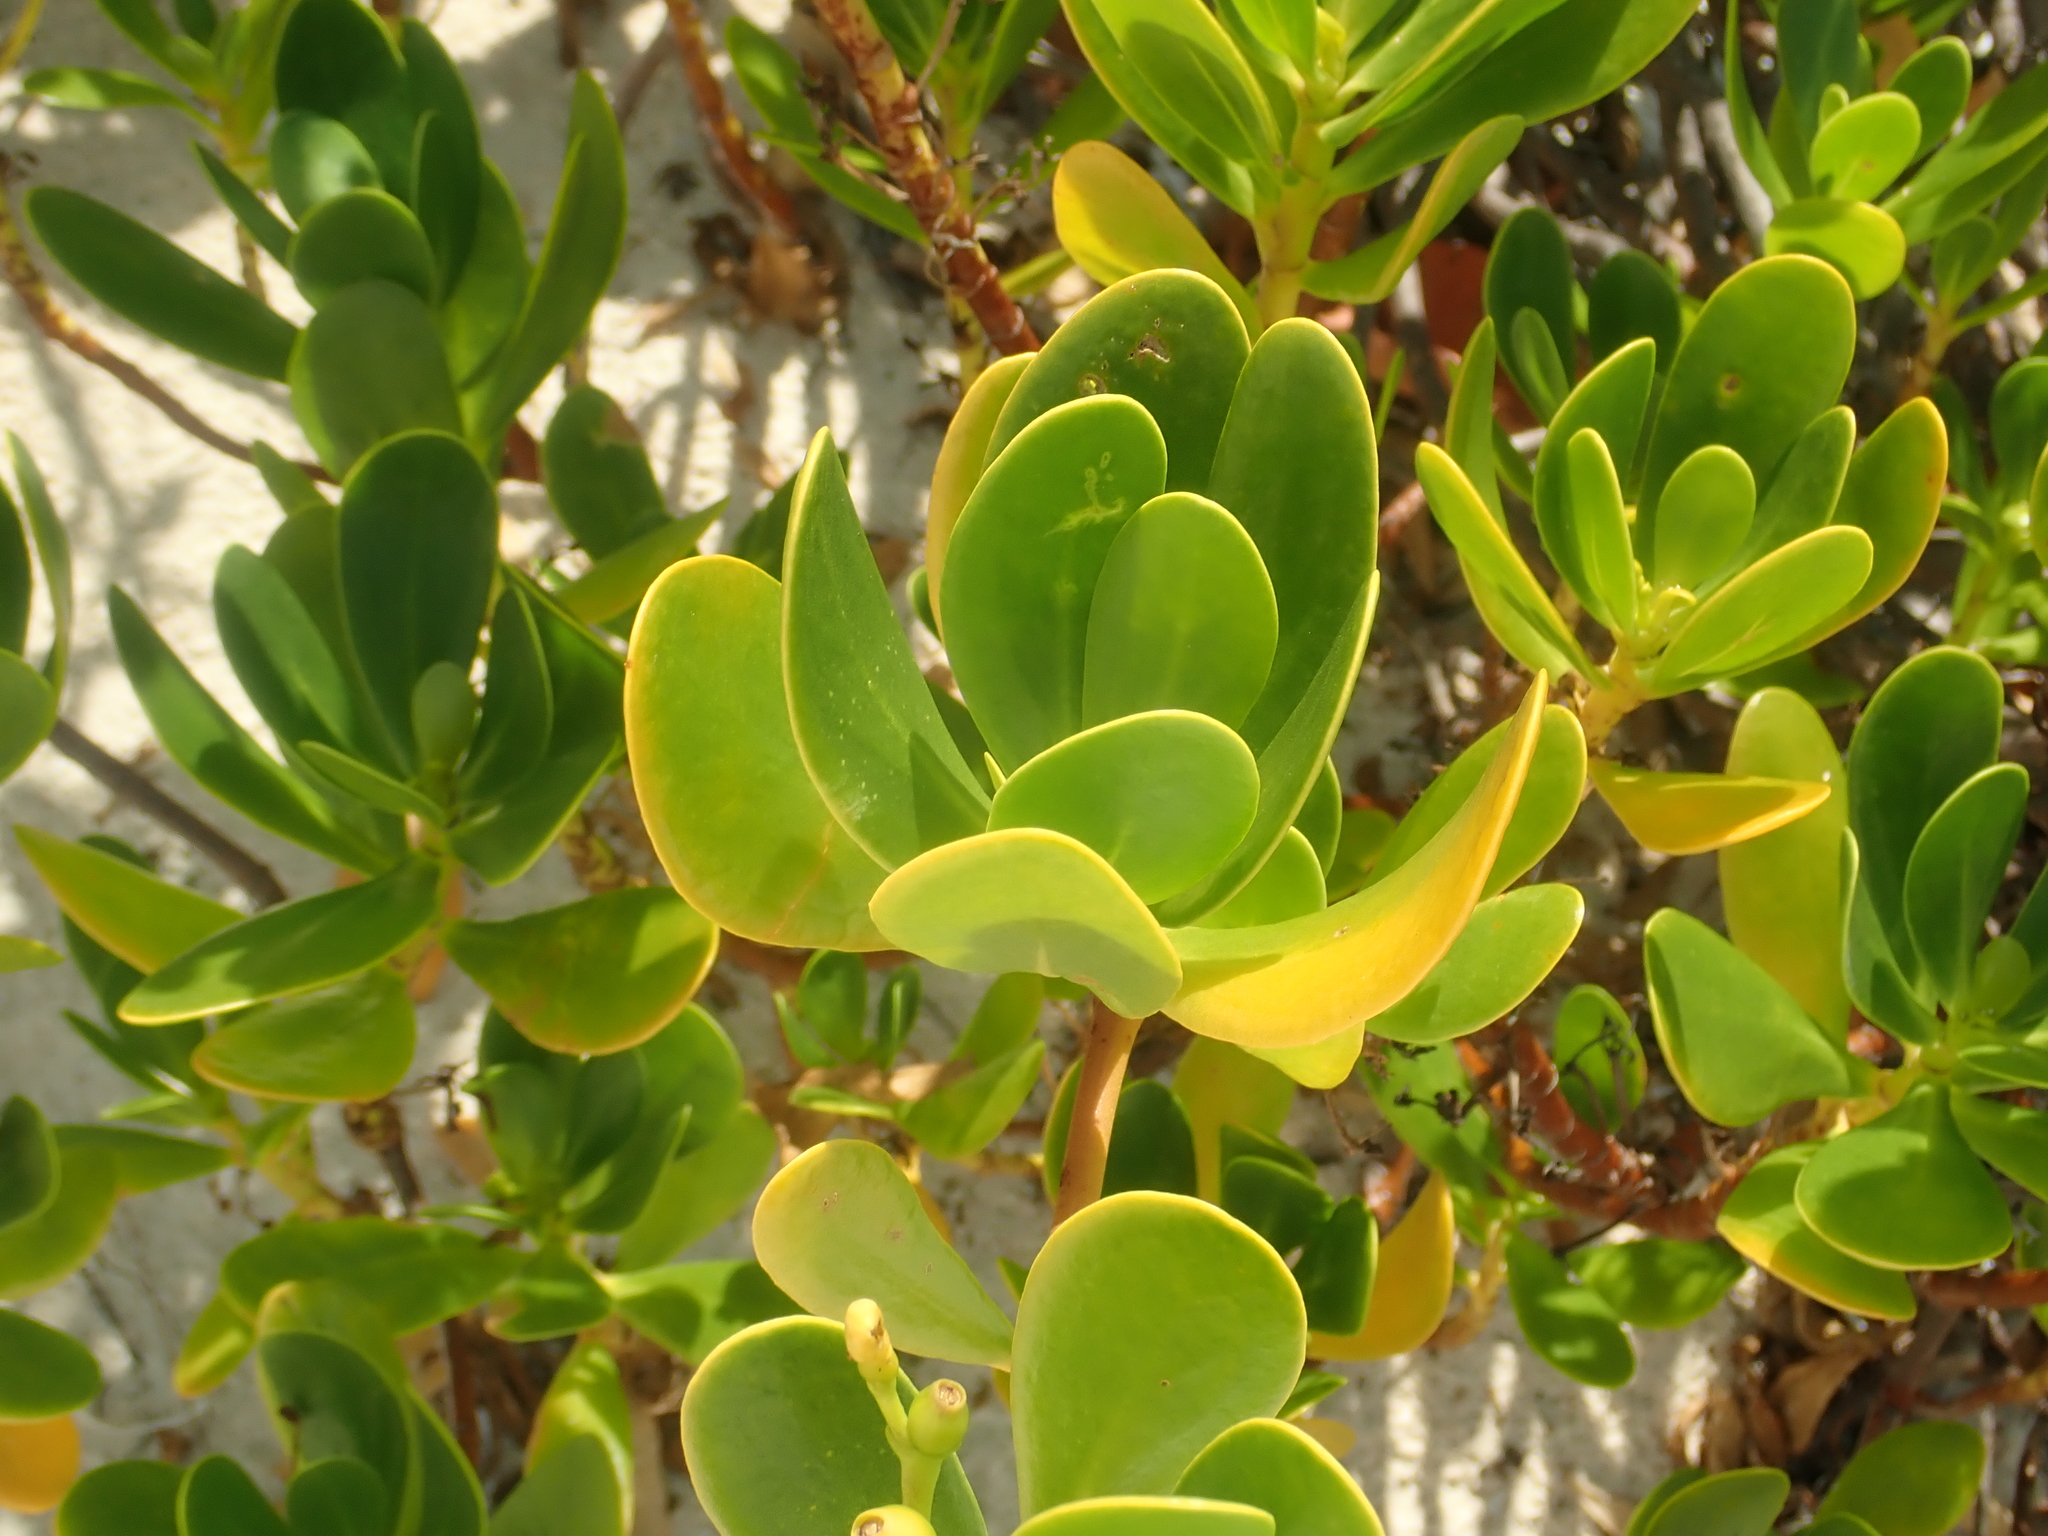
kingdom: Plantae
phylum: Tracheophyta
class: Magnoliopsida
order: Asterales
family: Goodeniaceae
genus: Scaevola
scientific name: Scaevola plumieri
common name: Gull feed
